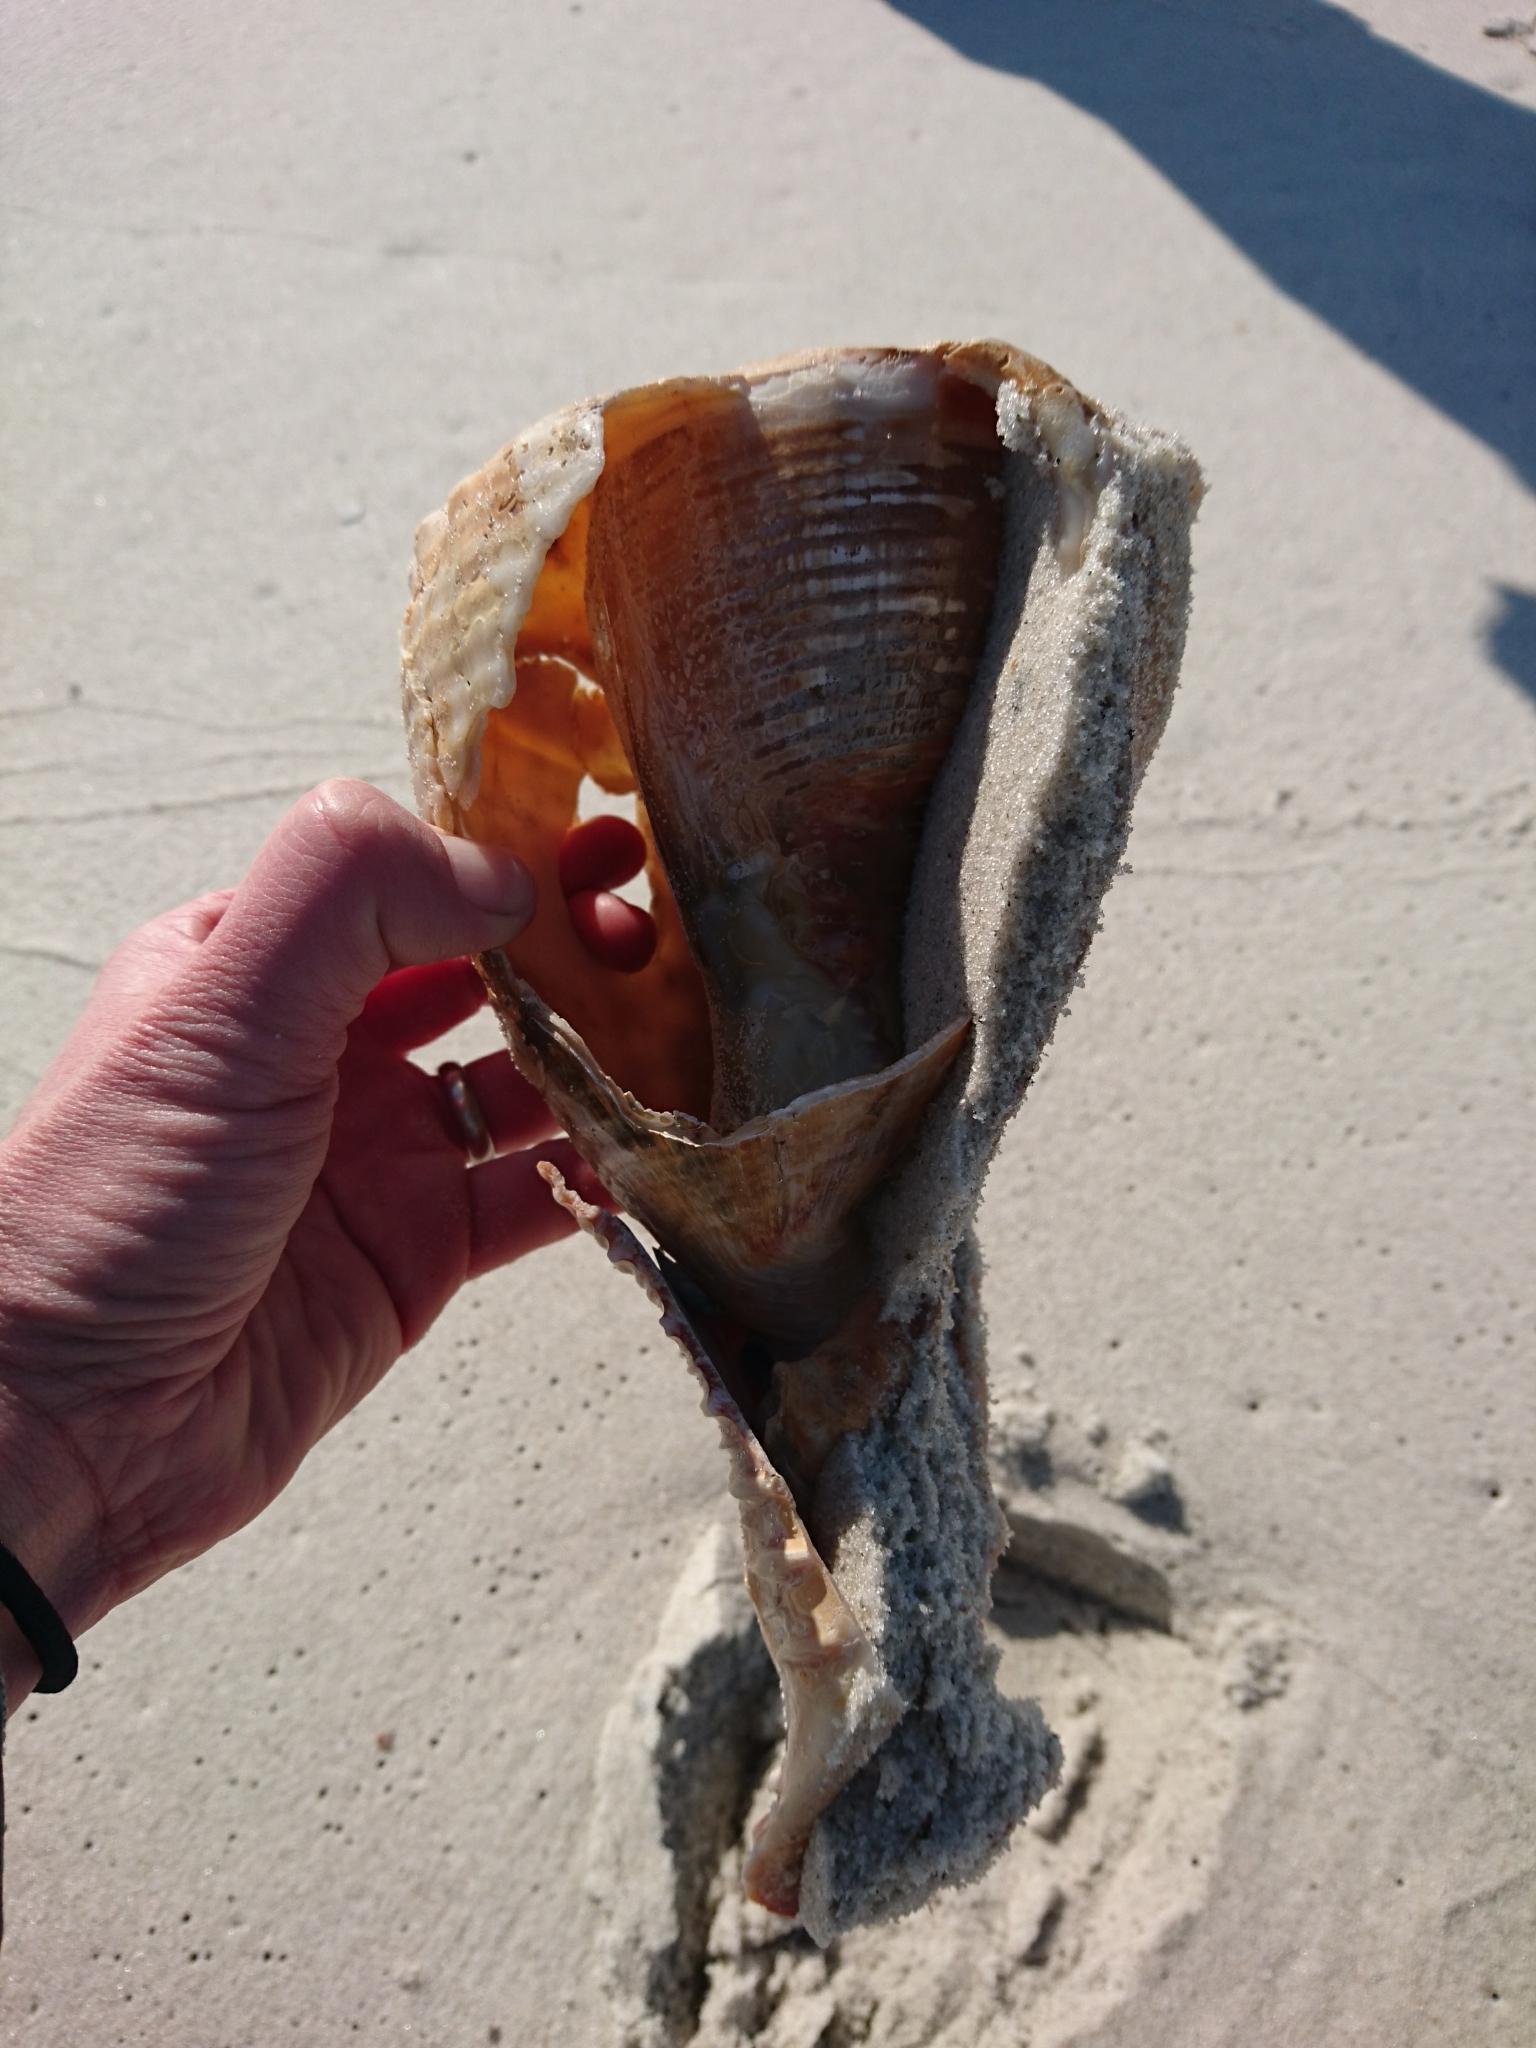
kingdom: Animalia
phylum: Mollusca
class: Gastropoda
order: Littorinimorpha
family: Cassidae
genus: Cassis
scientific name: Cassis madagascariensis
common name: Cameo helmet
